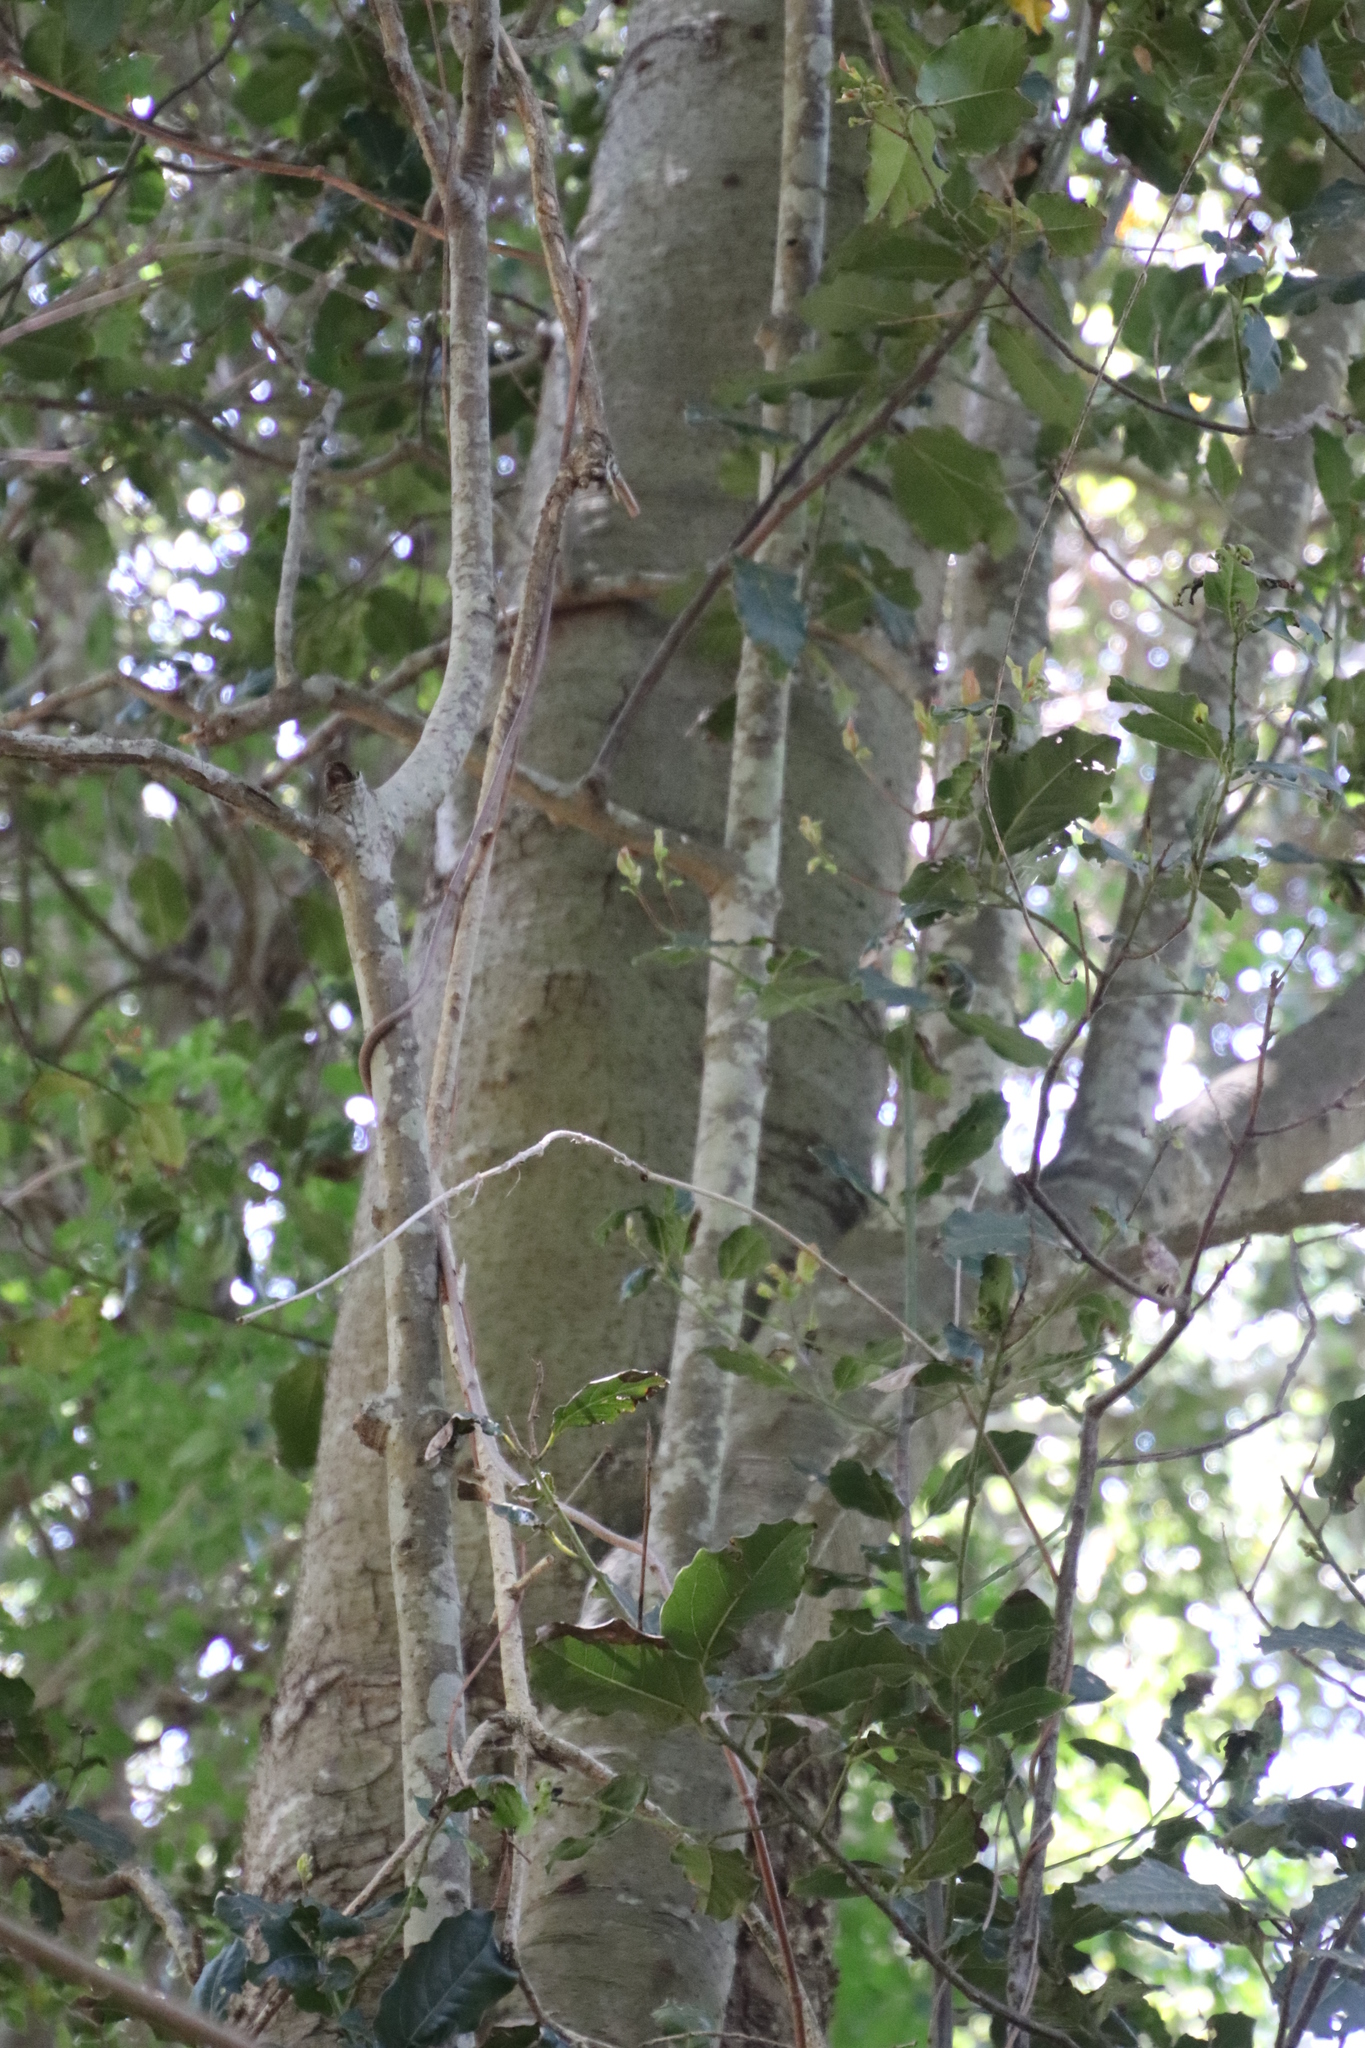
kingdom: Plantae
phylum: Tracheophyta
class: Magnoliopsida
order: Laurales
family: Lauraceae
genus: Ocotea
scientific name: Ocotea bullata
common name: Black stinkwood
